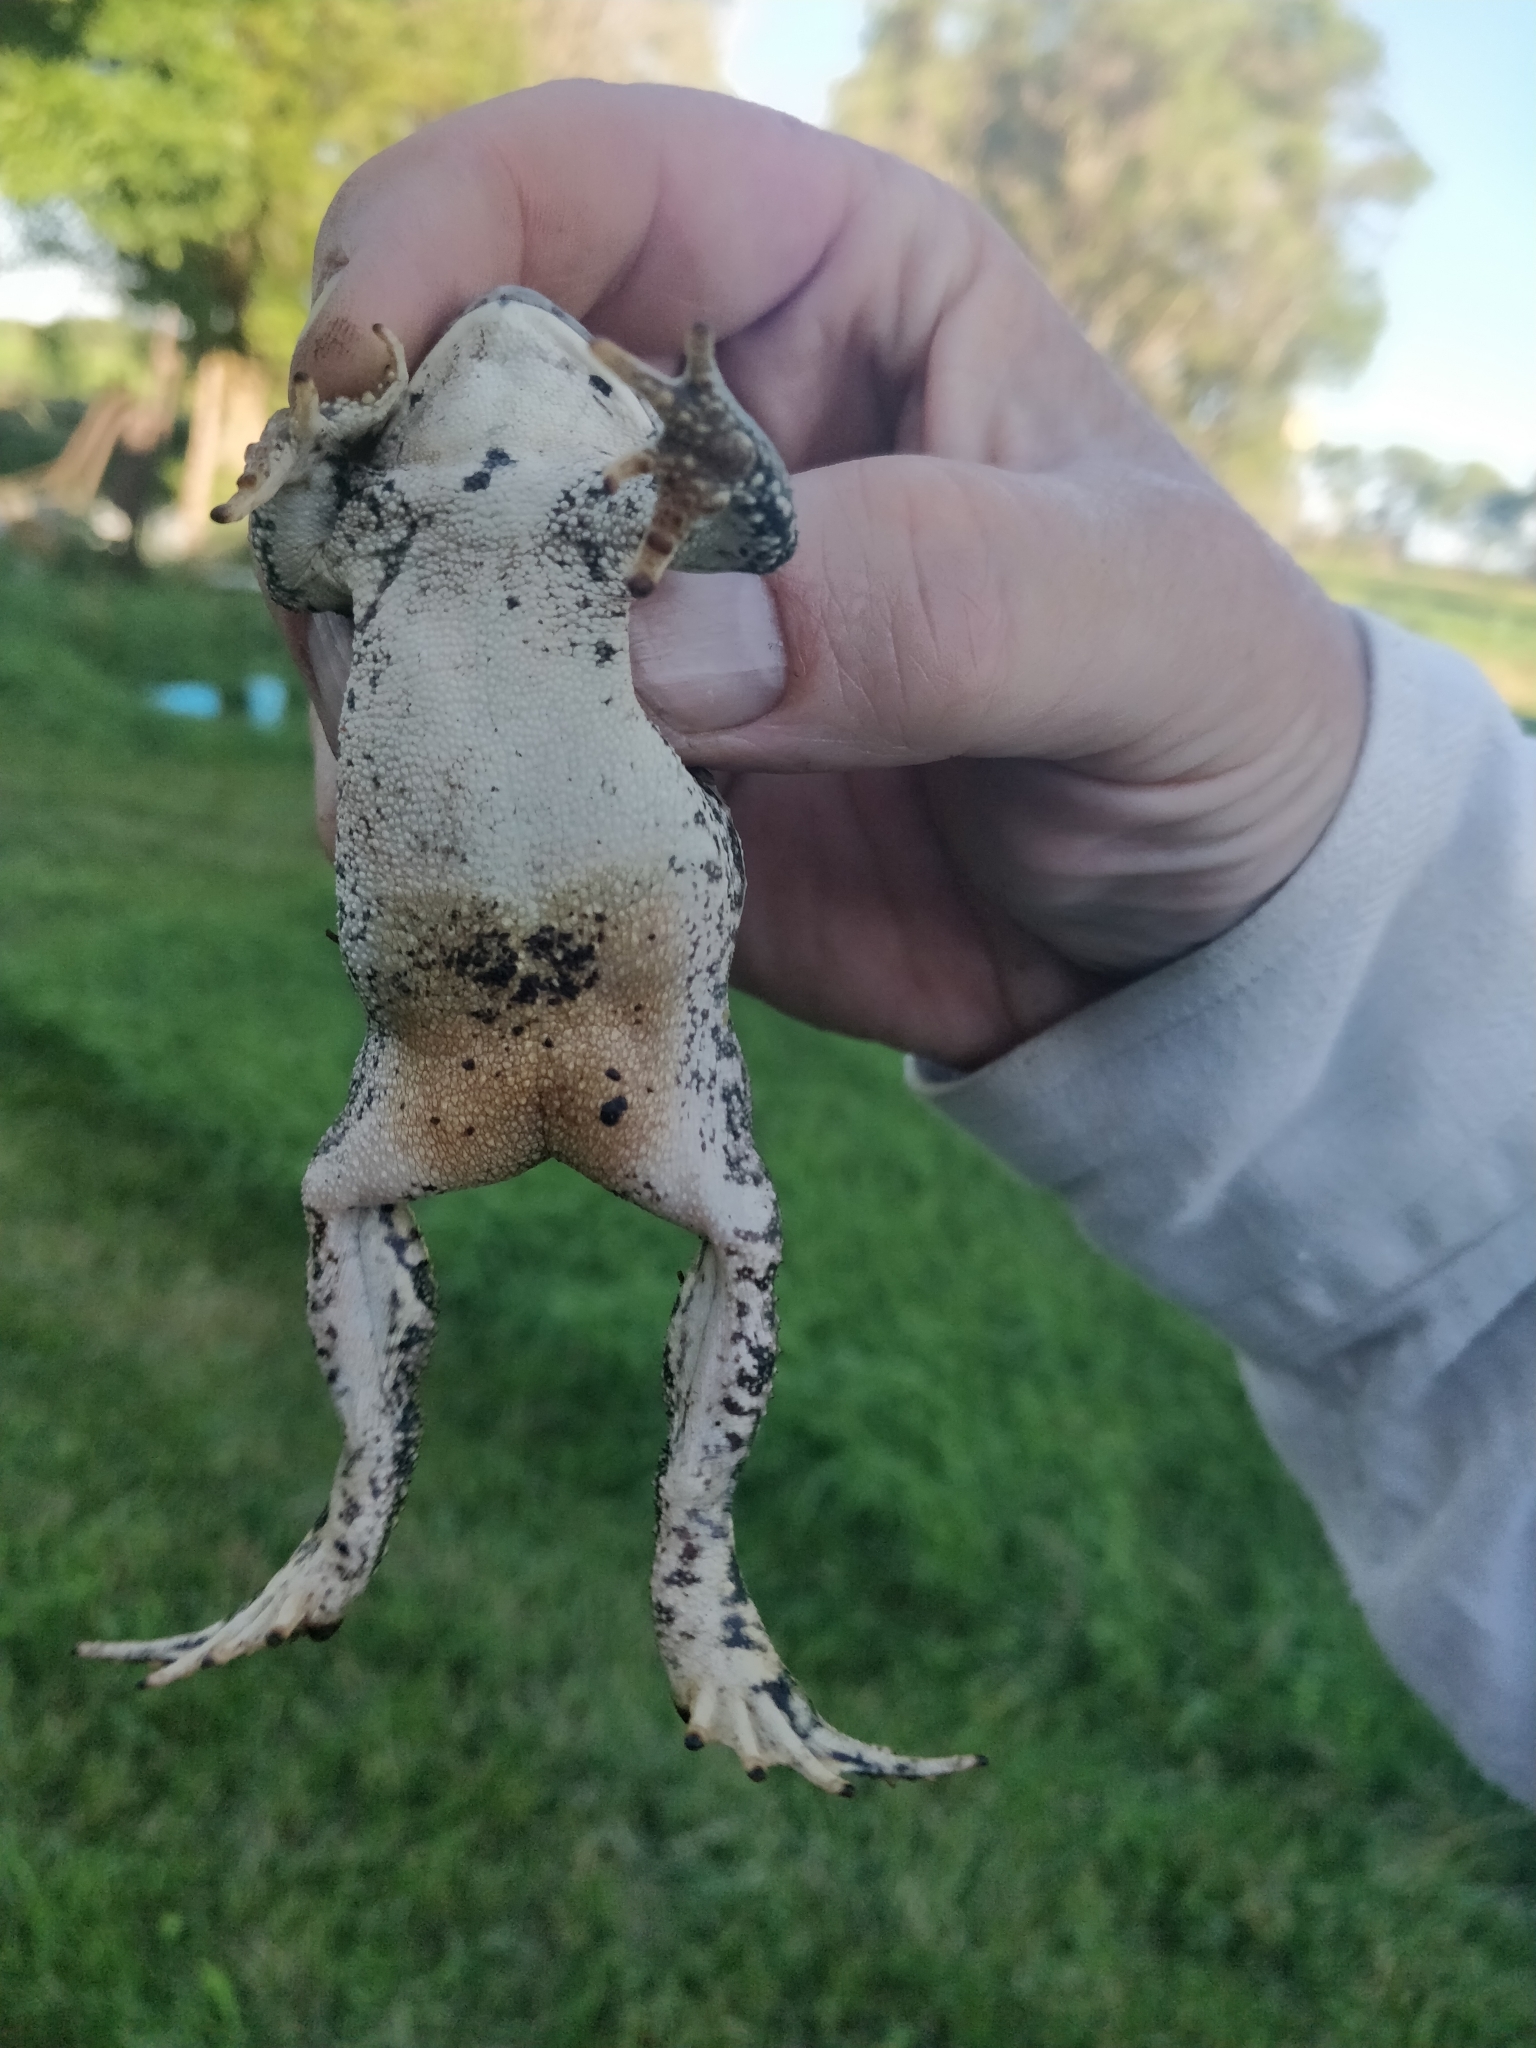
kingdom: Animalia
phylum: Chordata
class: Amphibia
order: Anura
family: Bufonidae
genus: Anaxyrus
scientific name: Anaxyrus woodhousii
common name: Woodhouse's toad
